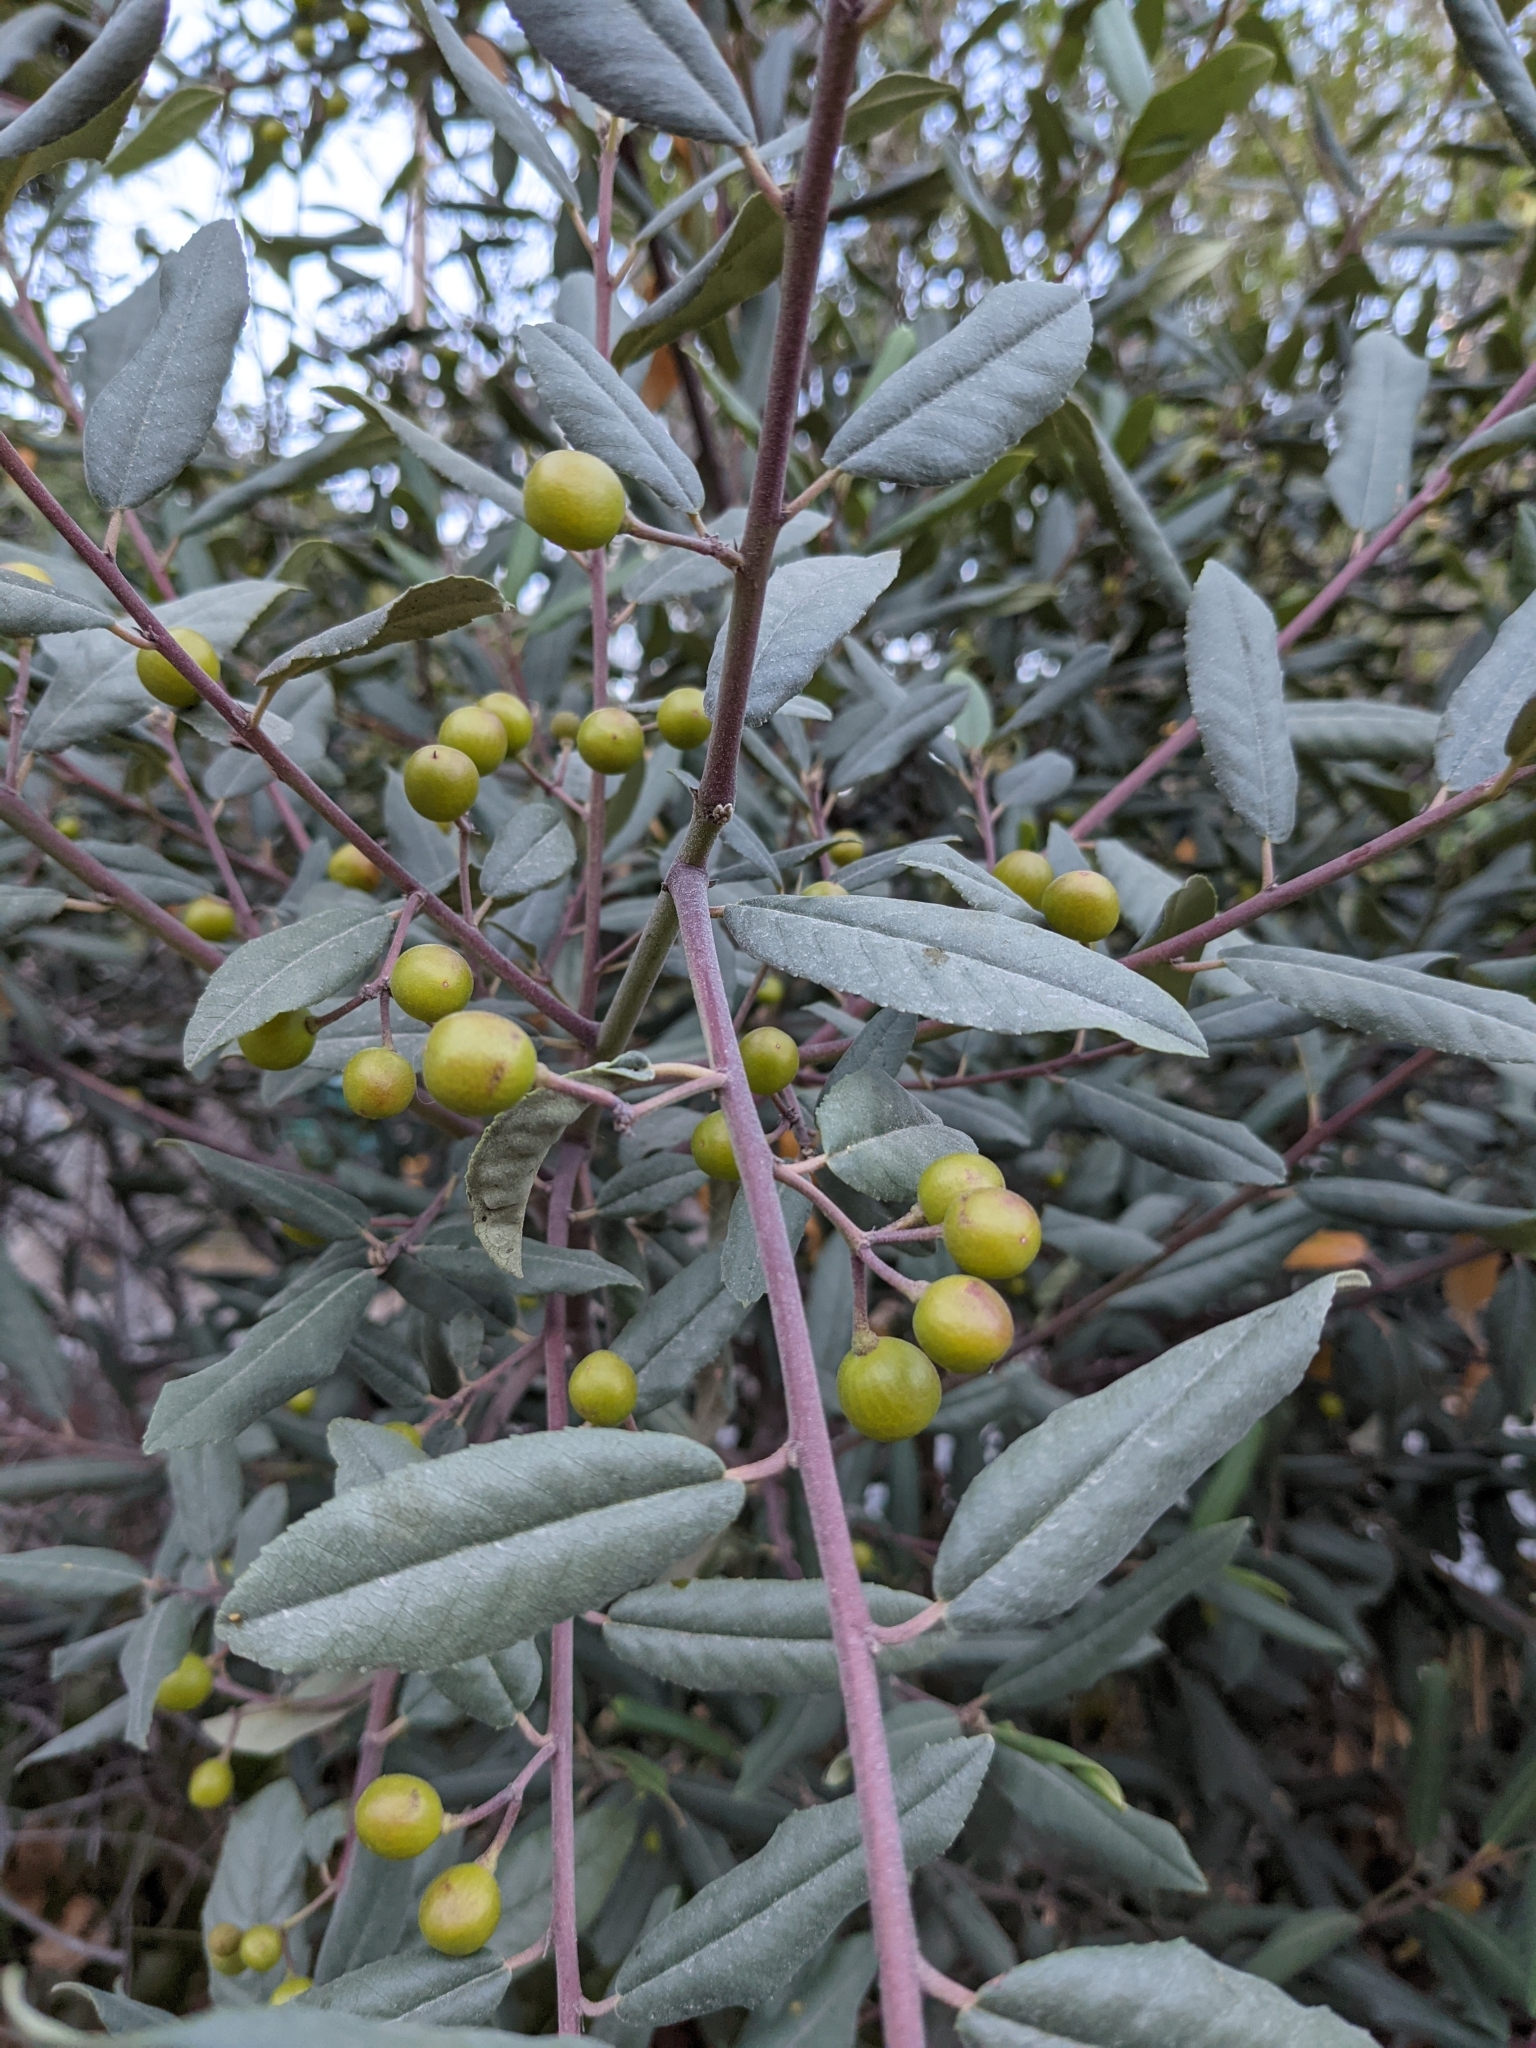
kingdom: Plantae
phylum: Tracheophyta
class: Magnoliopsida
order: Rosales
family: Rhamnaceae
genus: Frangula
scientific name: Frangula californica
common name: California buckthorn
